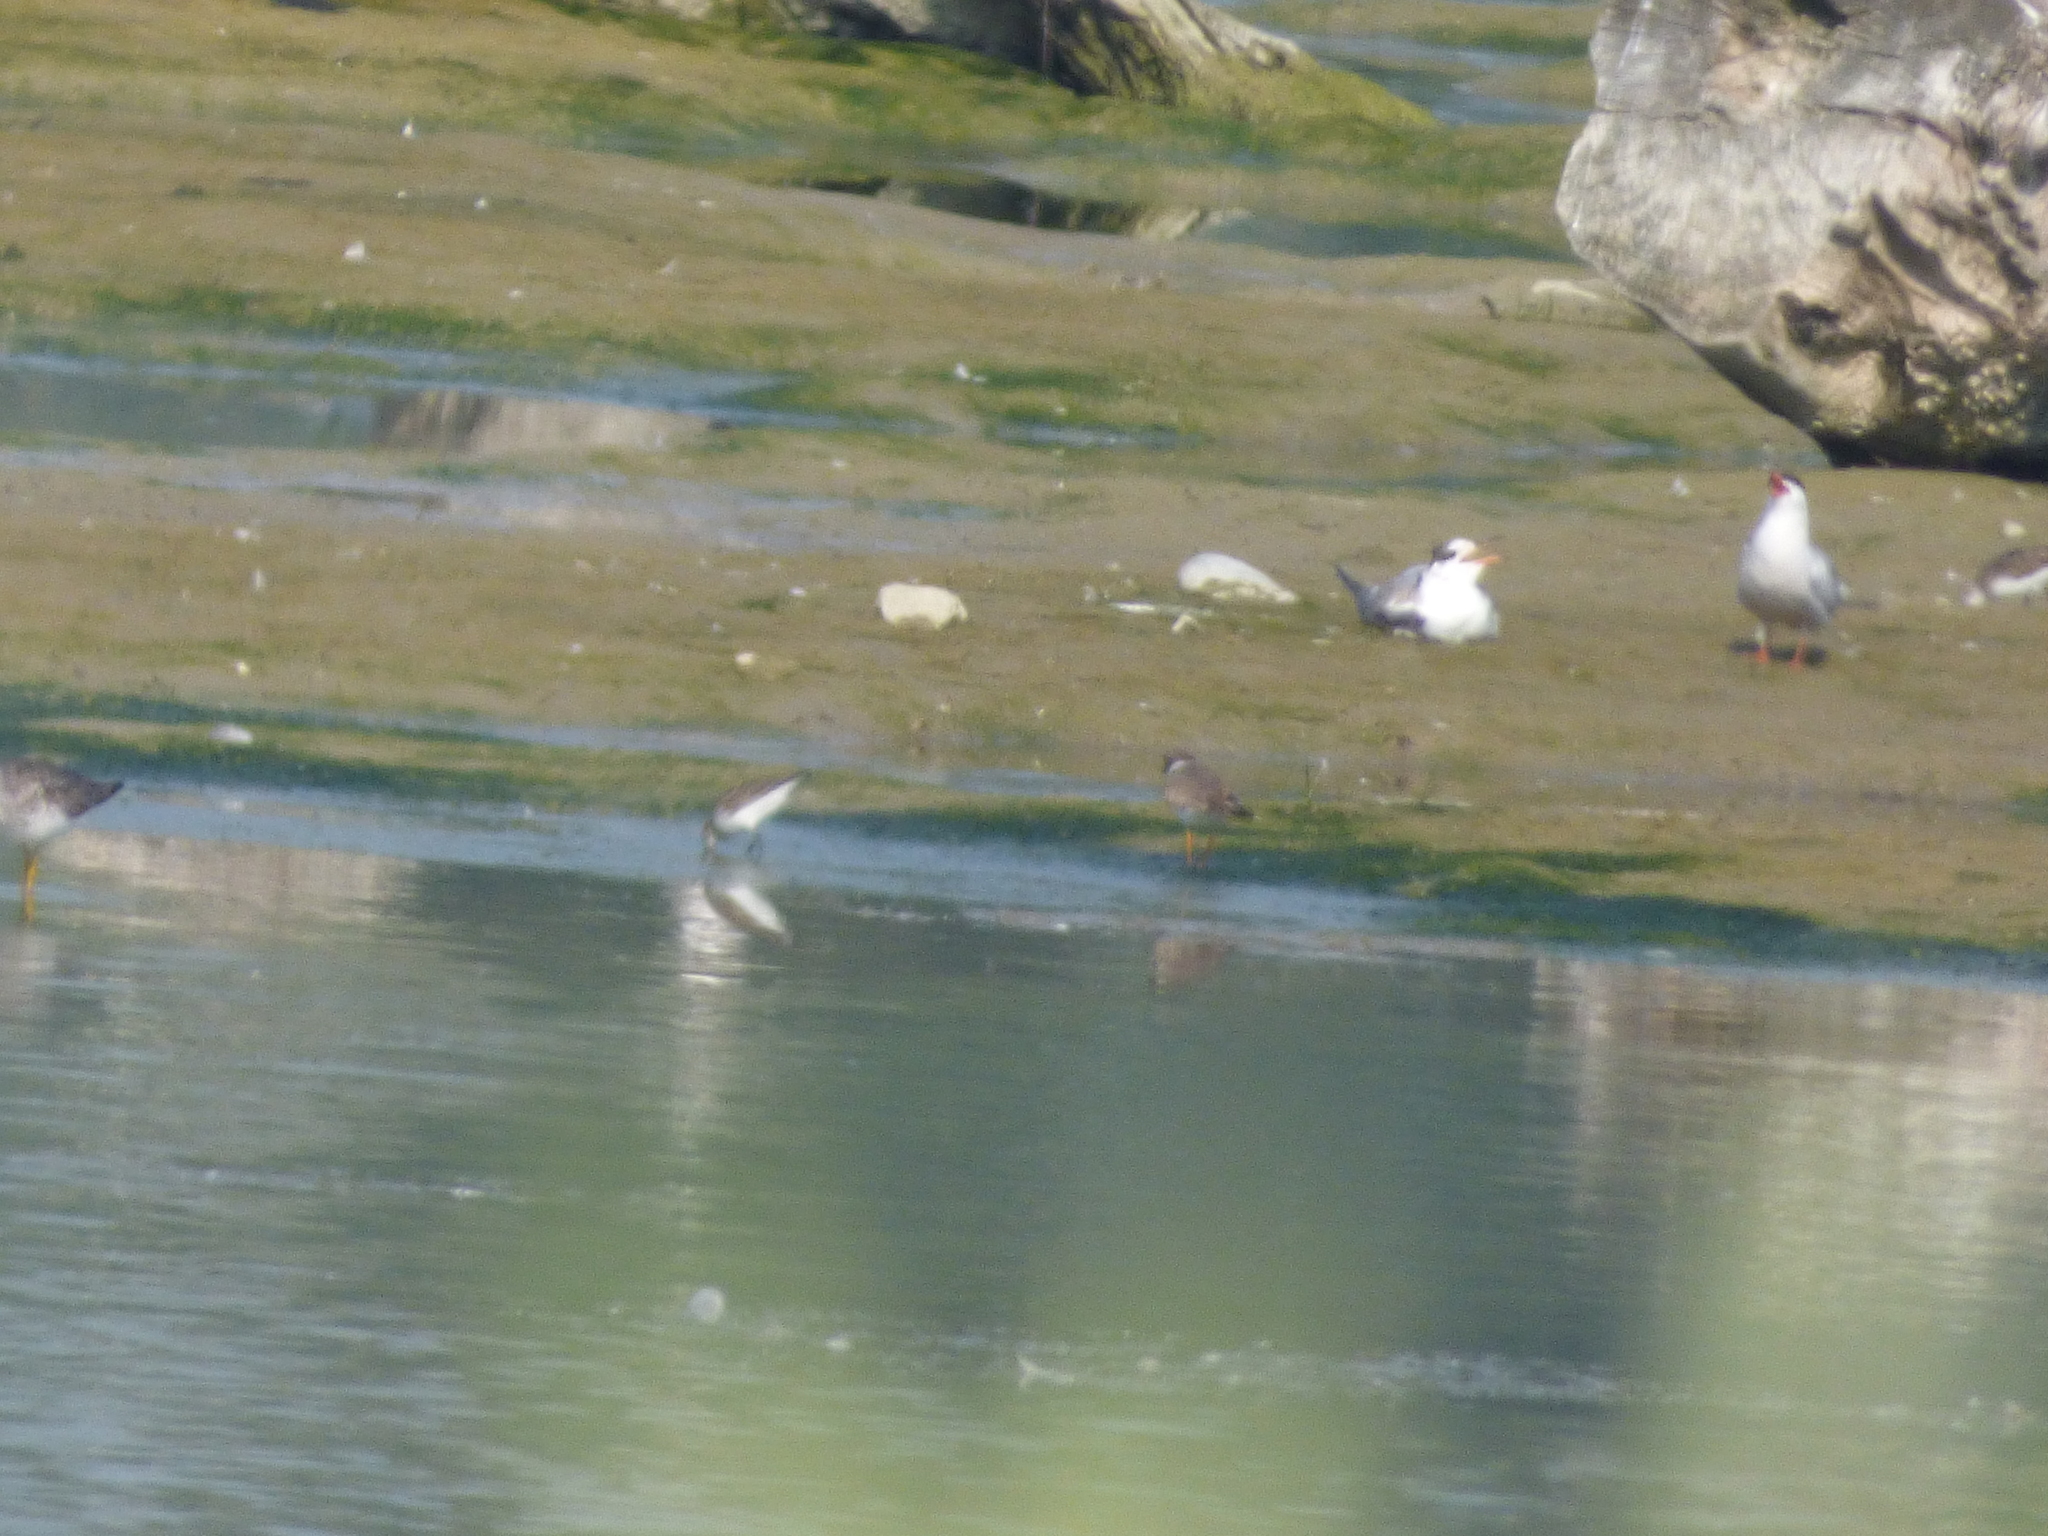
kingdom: Animalia
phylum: Chordata
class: Aves
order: Charadriiformes
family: Laridae
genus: Sterna
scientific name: Sterna hirundo
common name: Common tern
